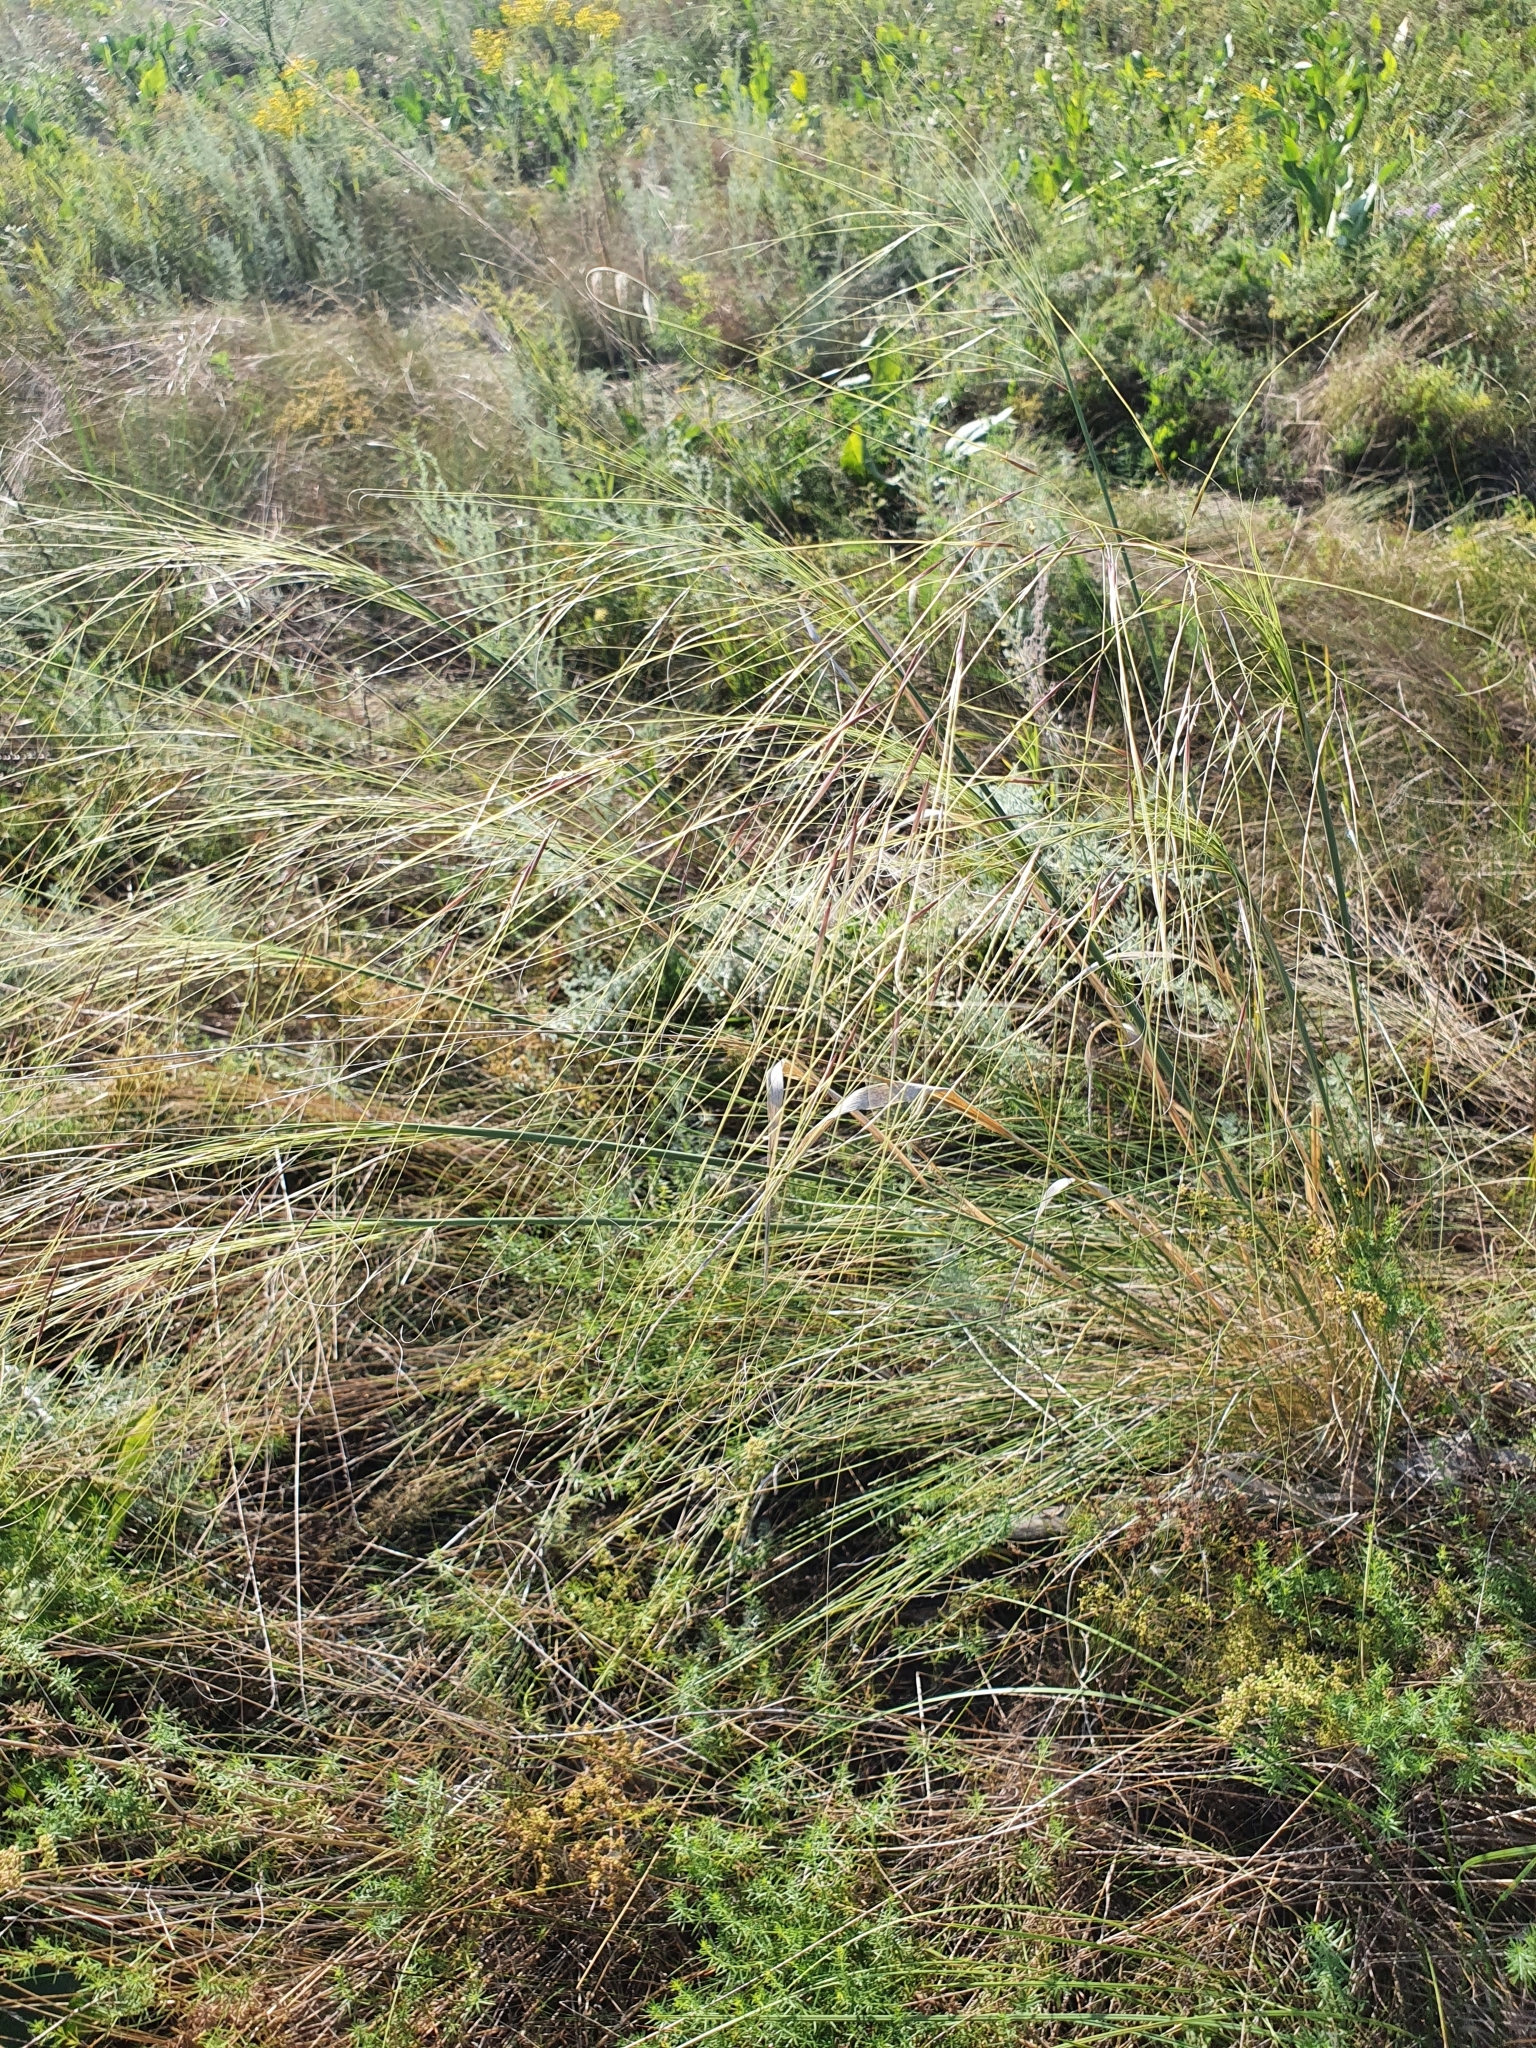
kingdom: Plantae
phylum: Tracheophyta
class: Liliopsida
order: Poales
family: Poaceae
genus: Stipa
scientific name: Stipa capillata
